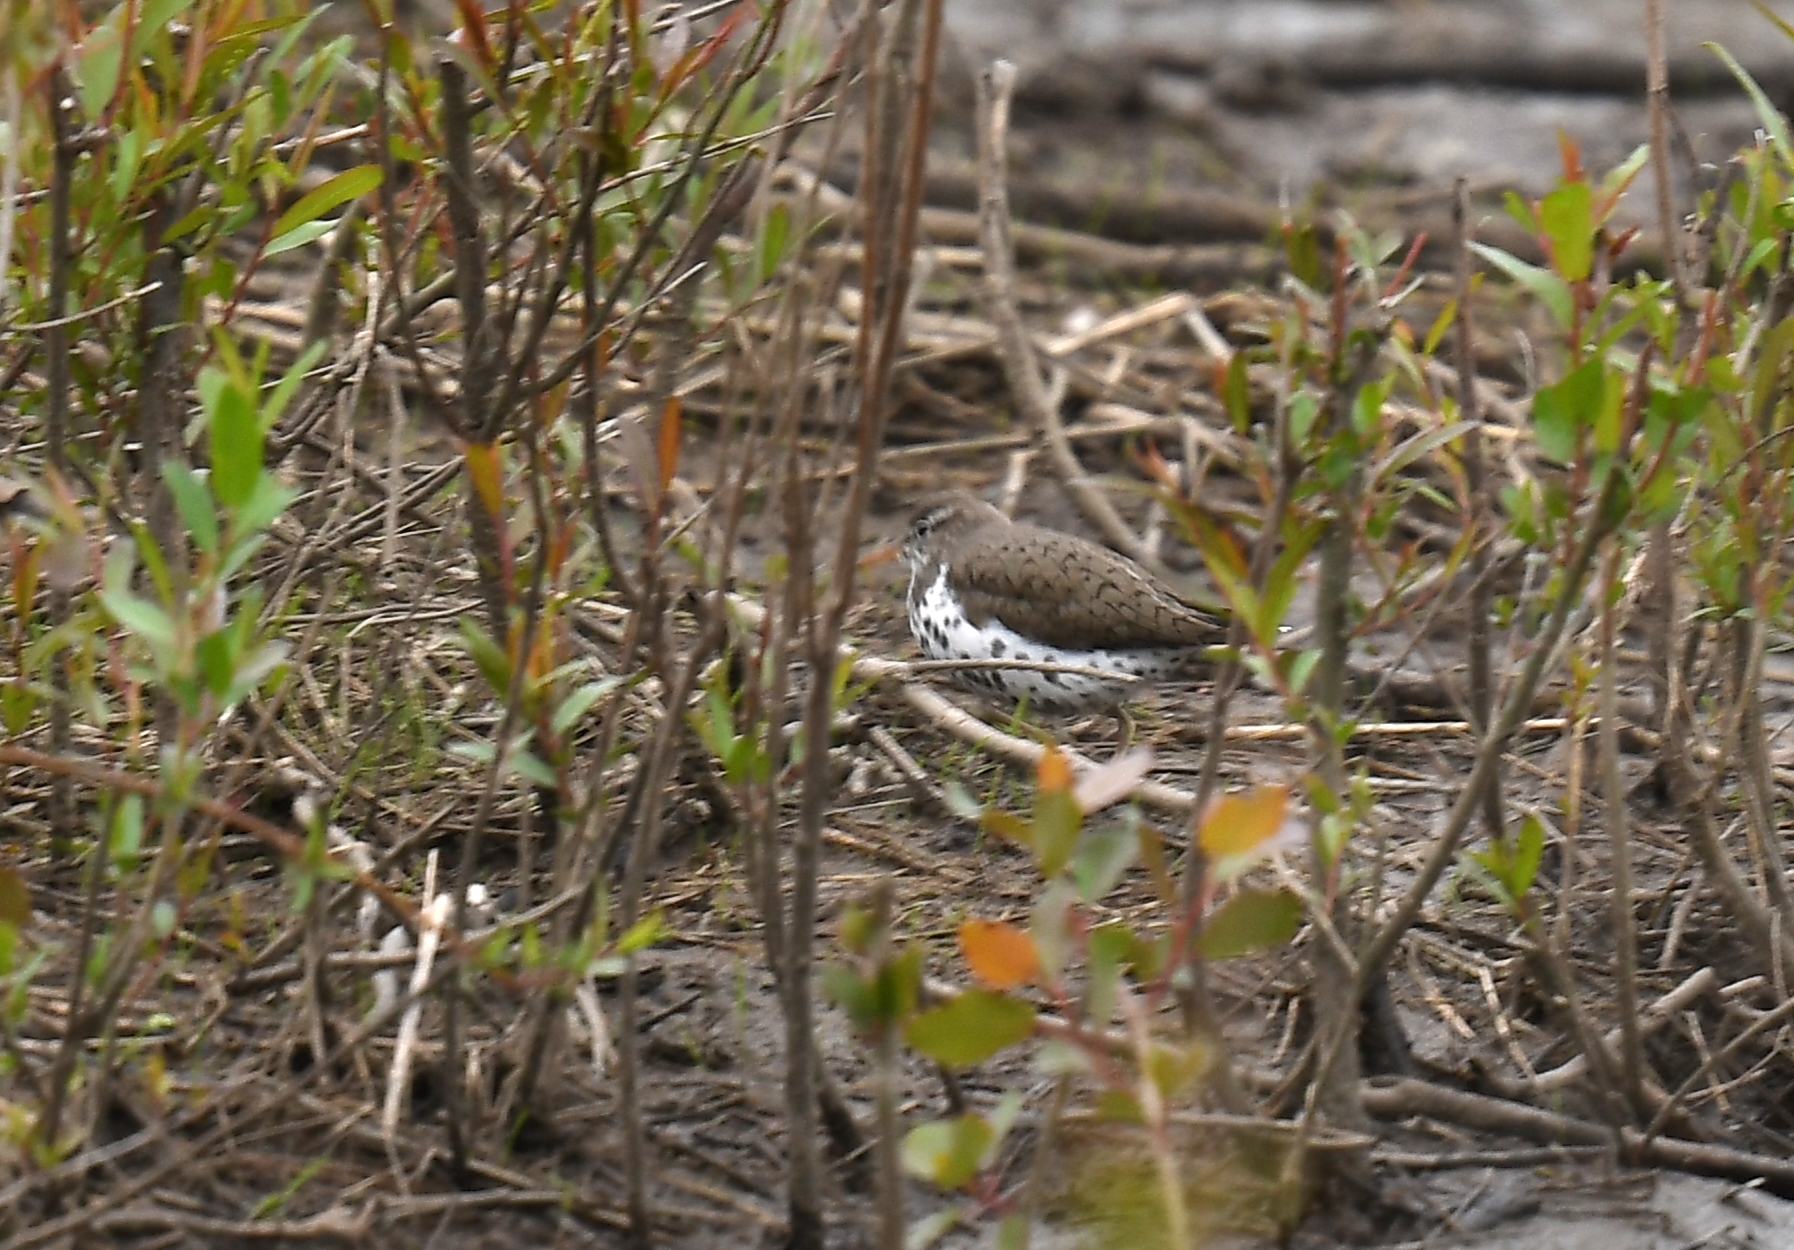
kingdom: Animalia
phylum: Chordata
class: Aves
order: Charadriiformes
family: Scolopacidae
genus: Actitis
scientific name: Actitis macularius
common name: Spotted sandpiper
